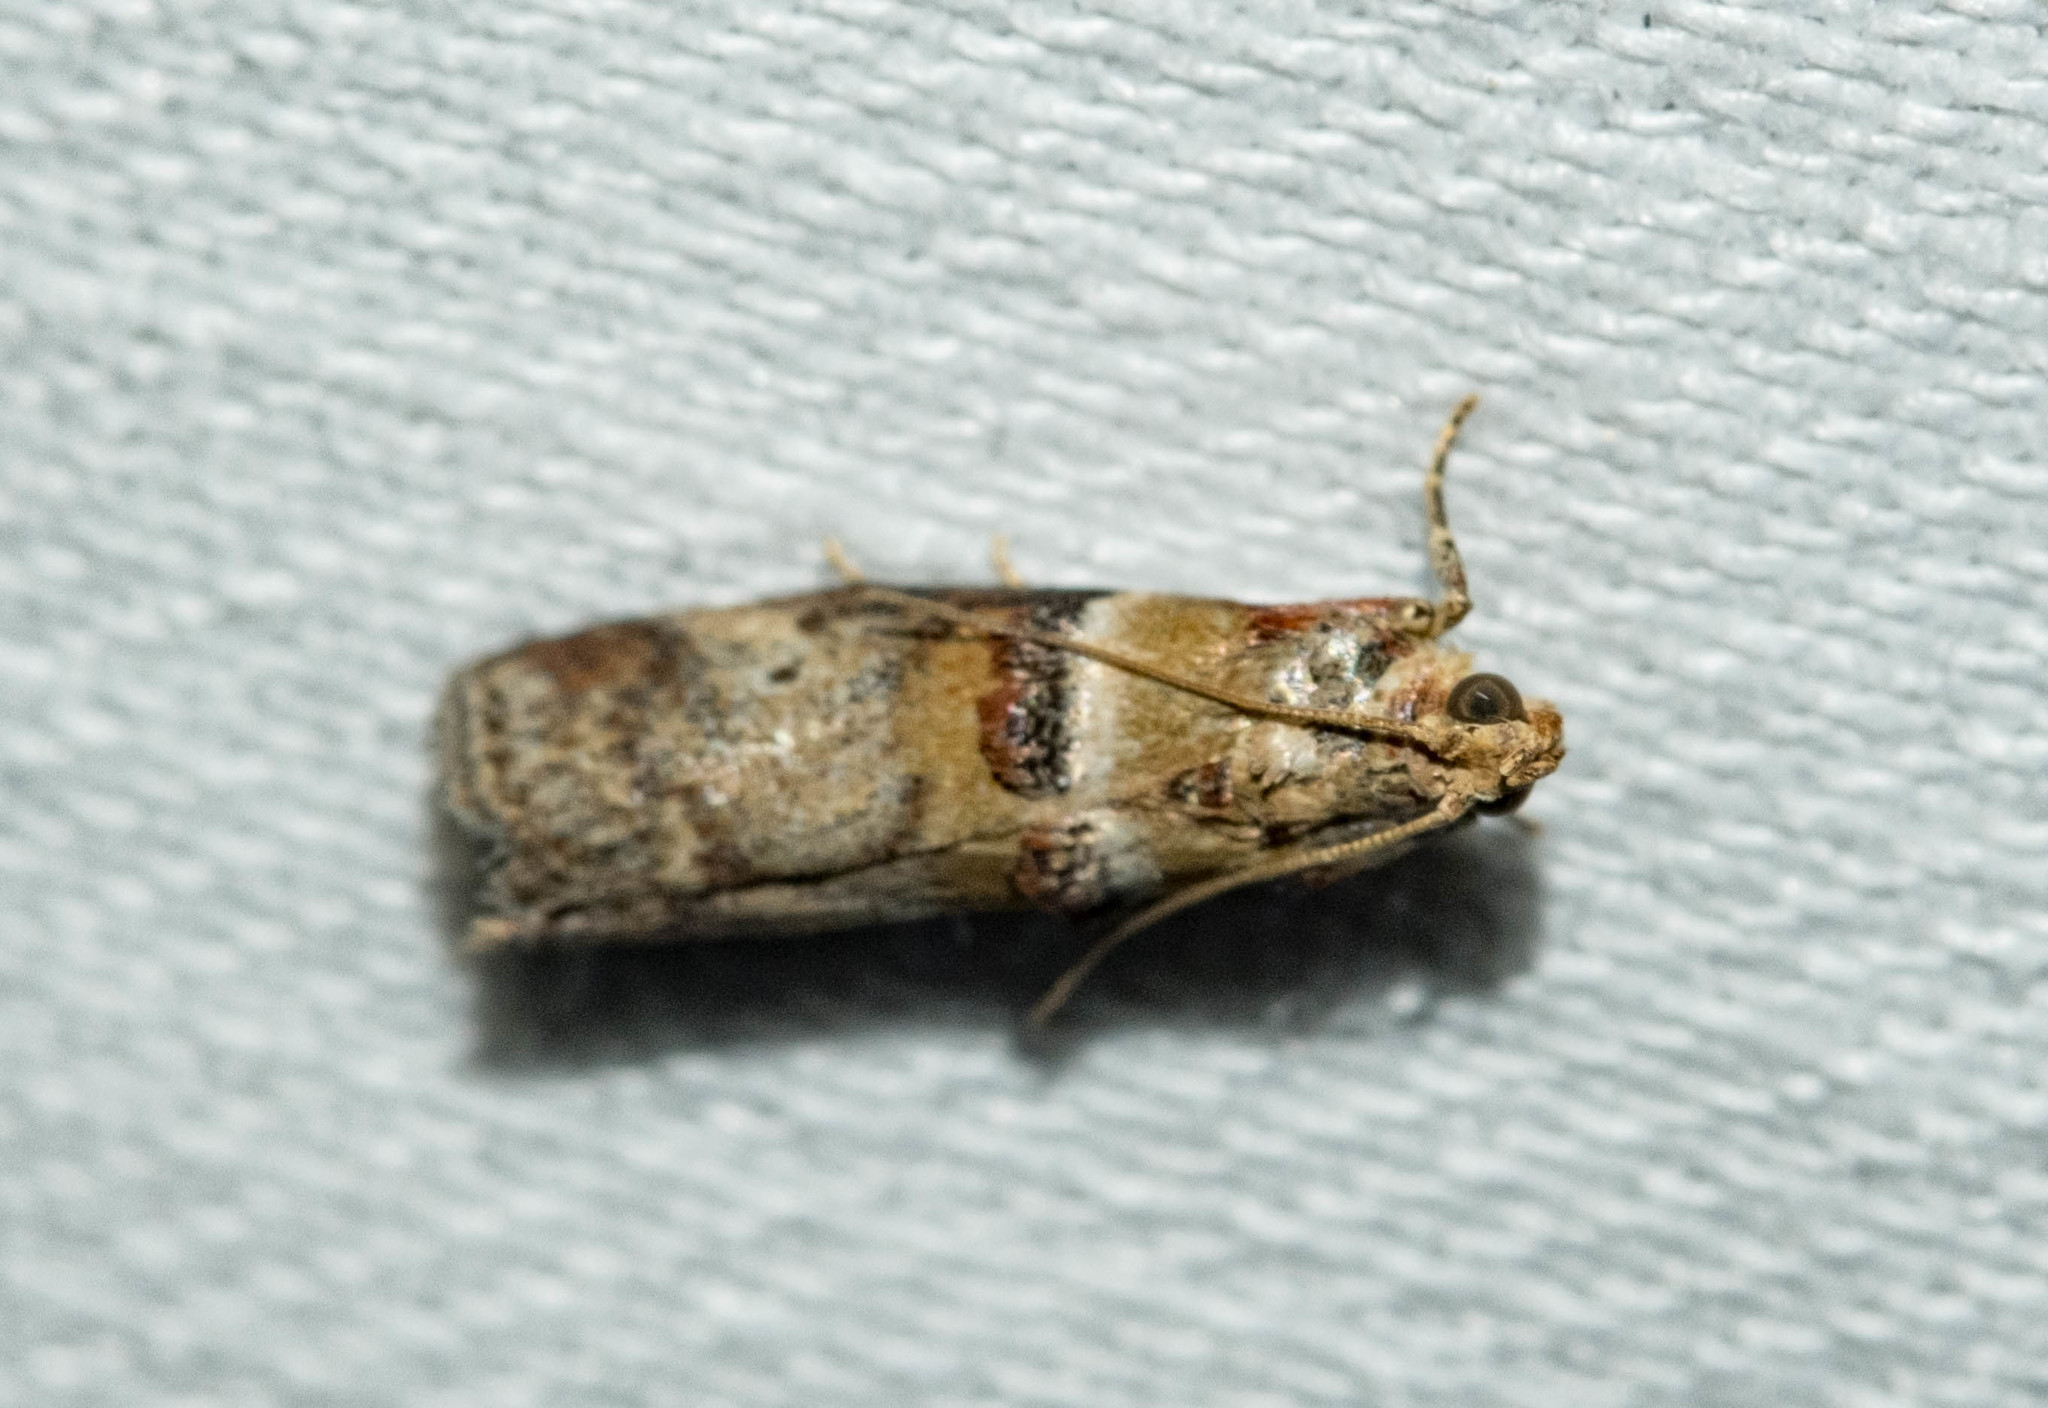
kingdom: Animalia
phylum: Arthropoda
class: Insecta
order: Lepidoptera
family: Pyralidae
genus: Acrobasis
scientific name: Acrobasis tumidana
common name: Scarce oak knot-horn
